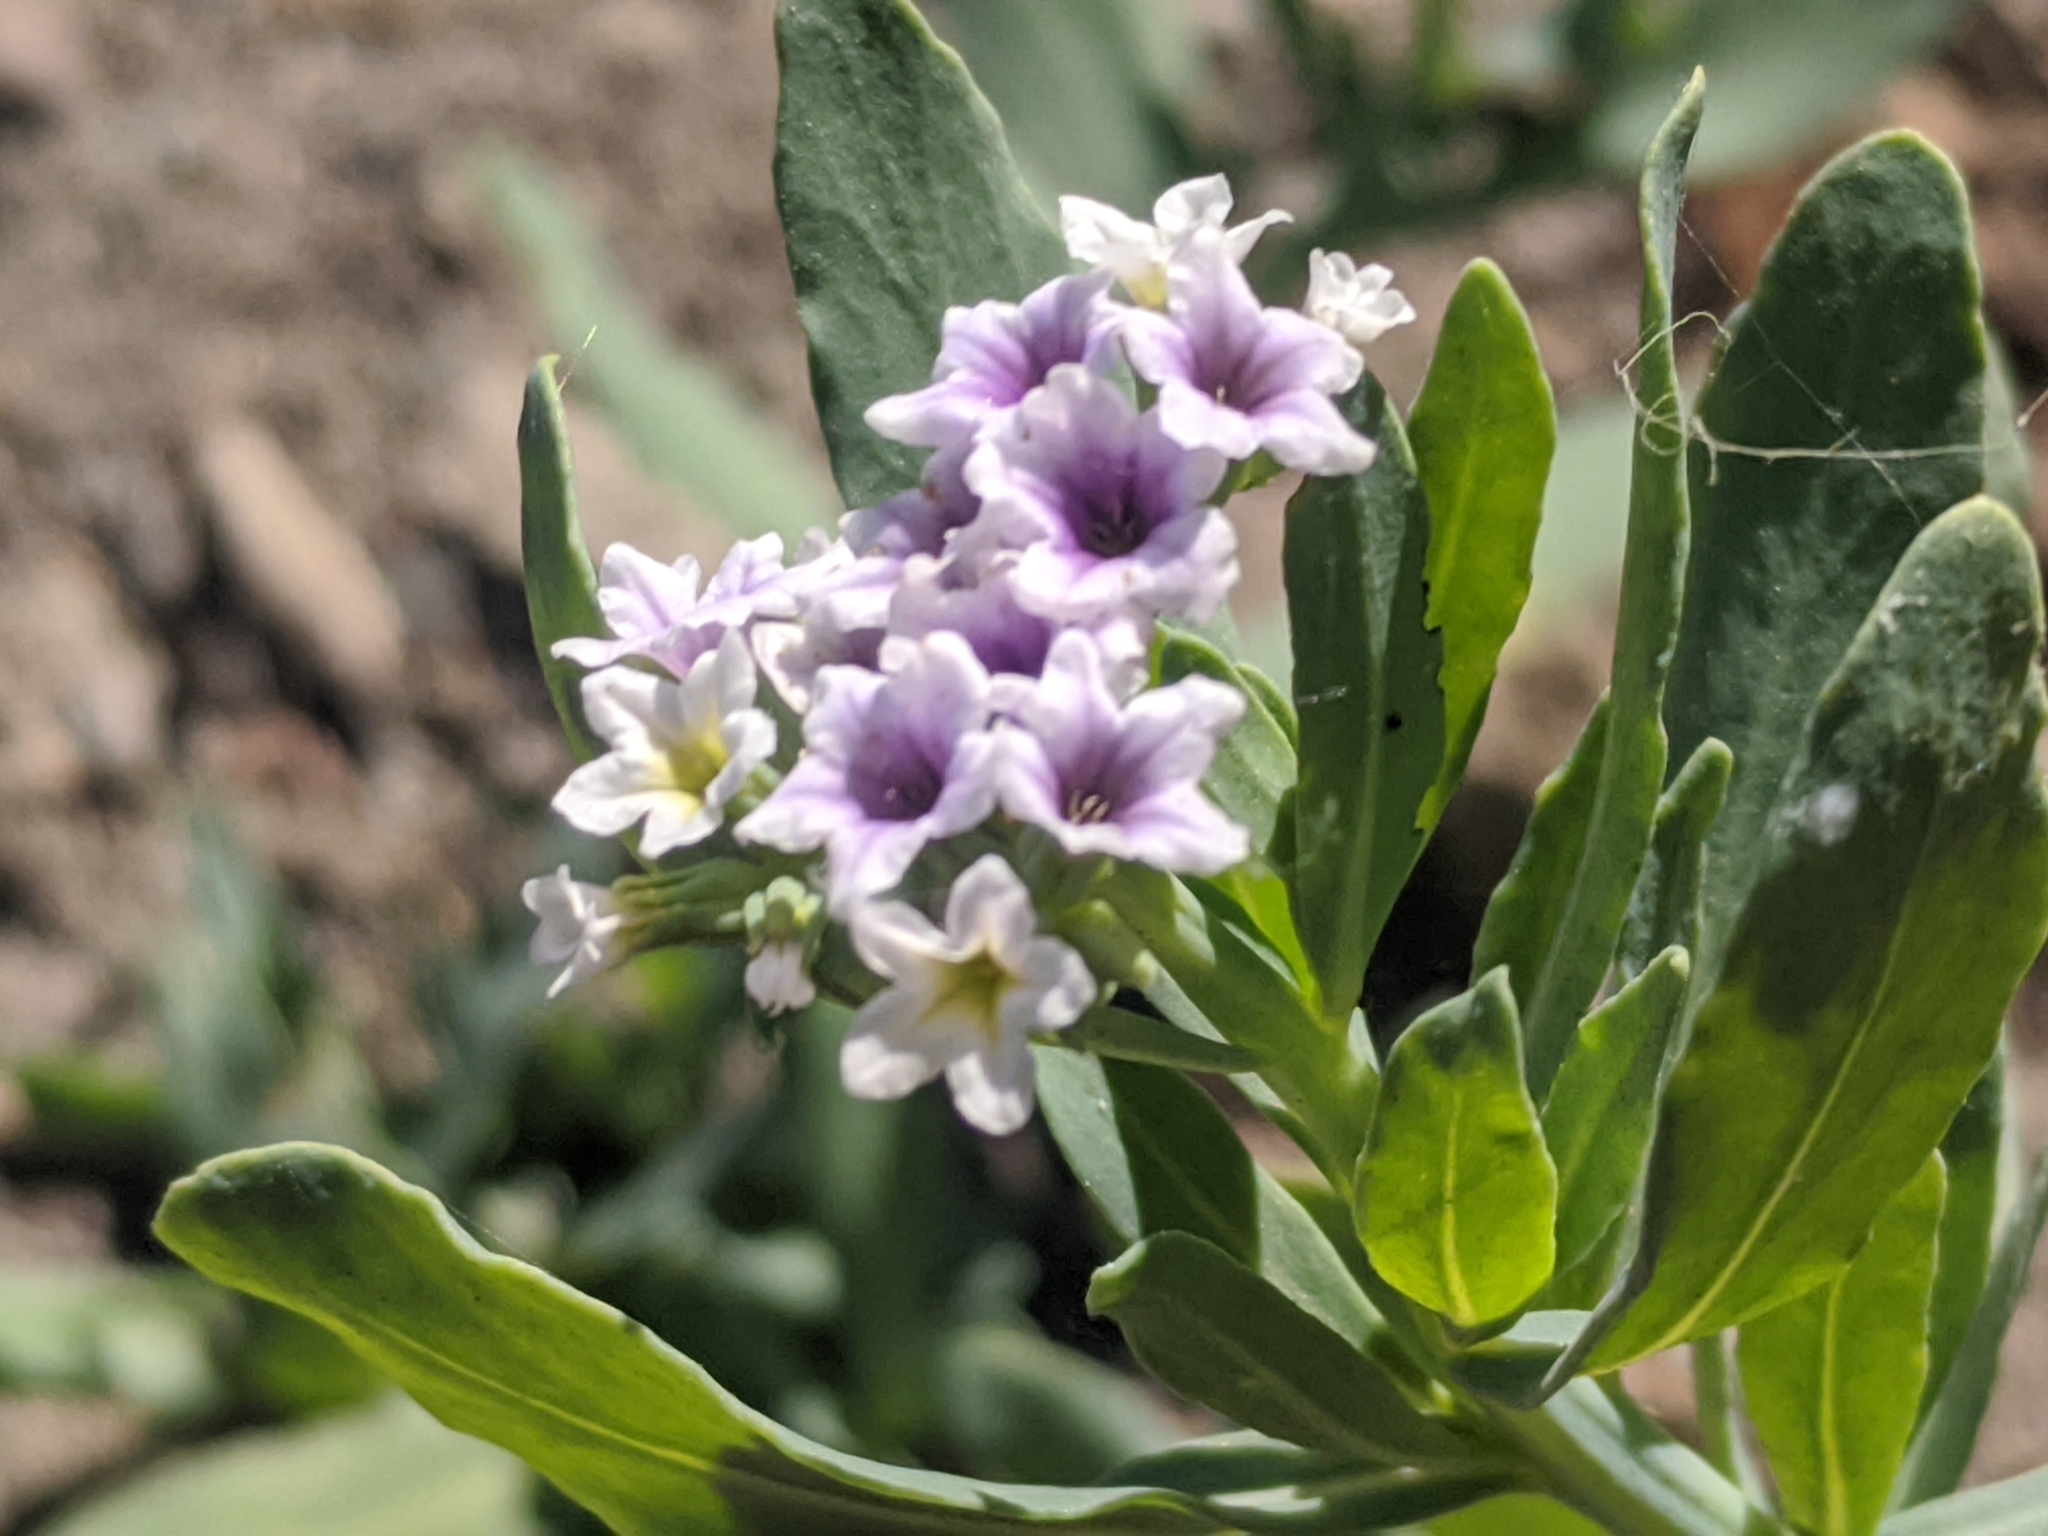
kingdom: Plantae
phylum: Tracheophyta
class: Magnoliopsida
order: Boraginales
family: Heliotropiaceae
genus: Heliotropium
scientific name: Heliotropium curassavicum
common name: Seaside heliotrope
